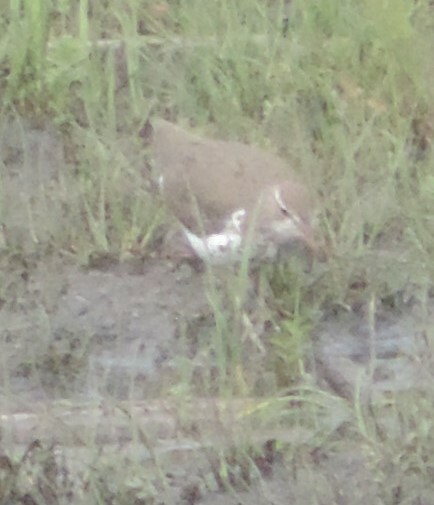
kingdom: Animalia
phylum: Chordata
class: Aves
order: Charadriiformes
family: Scolopacidae
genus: Actitis
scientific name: Actitis macularius
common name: Spotted sandpiper
